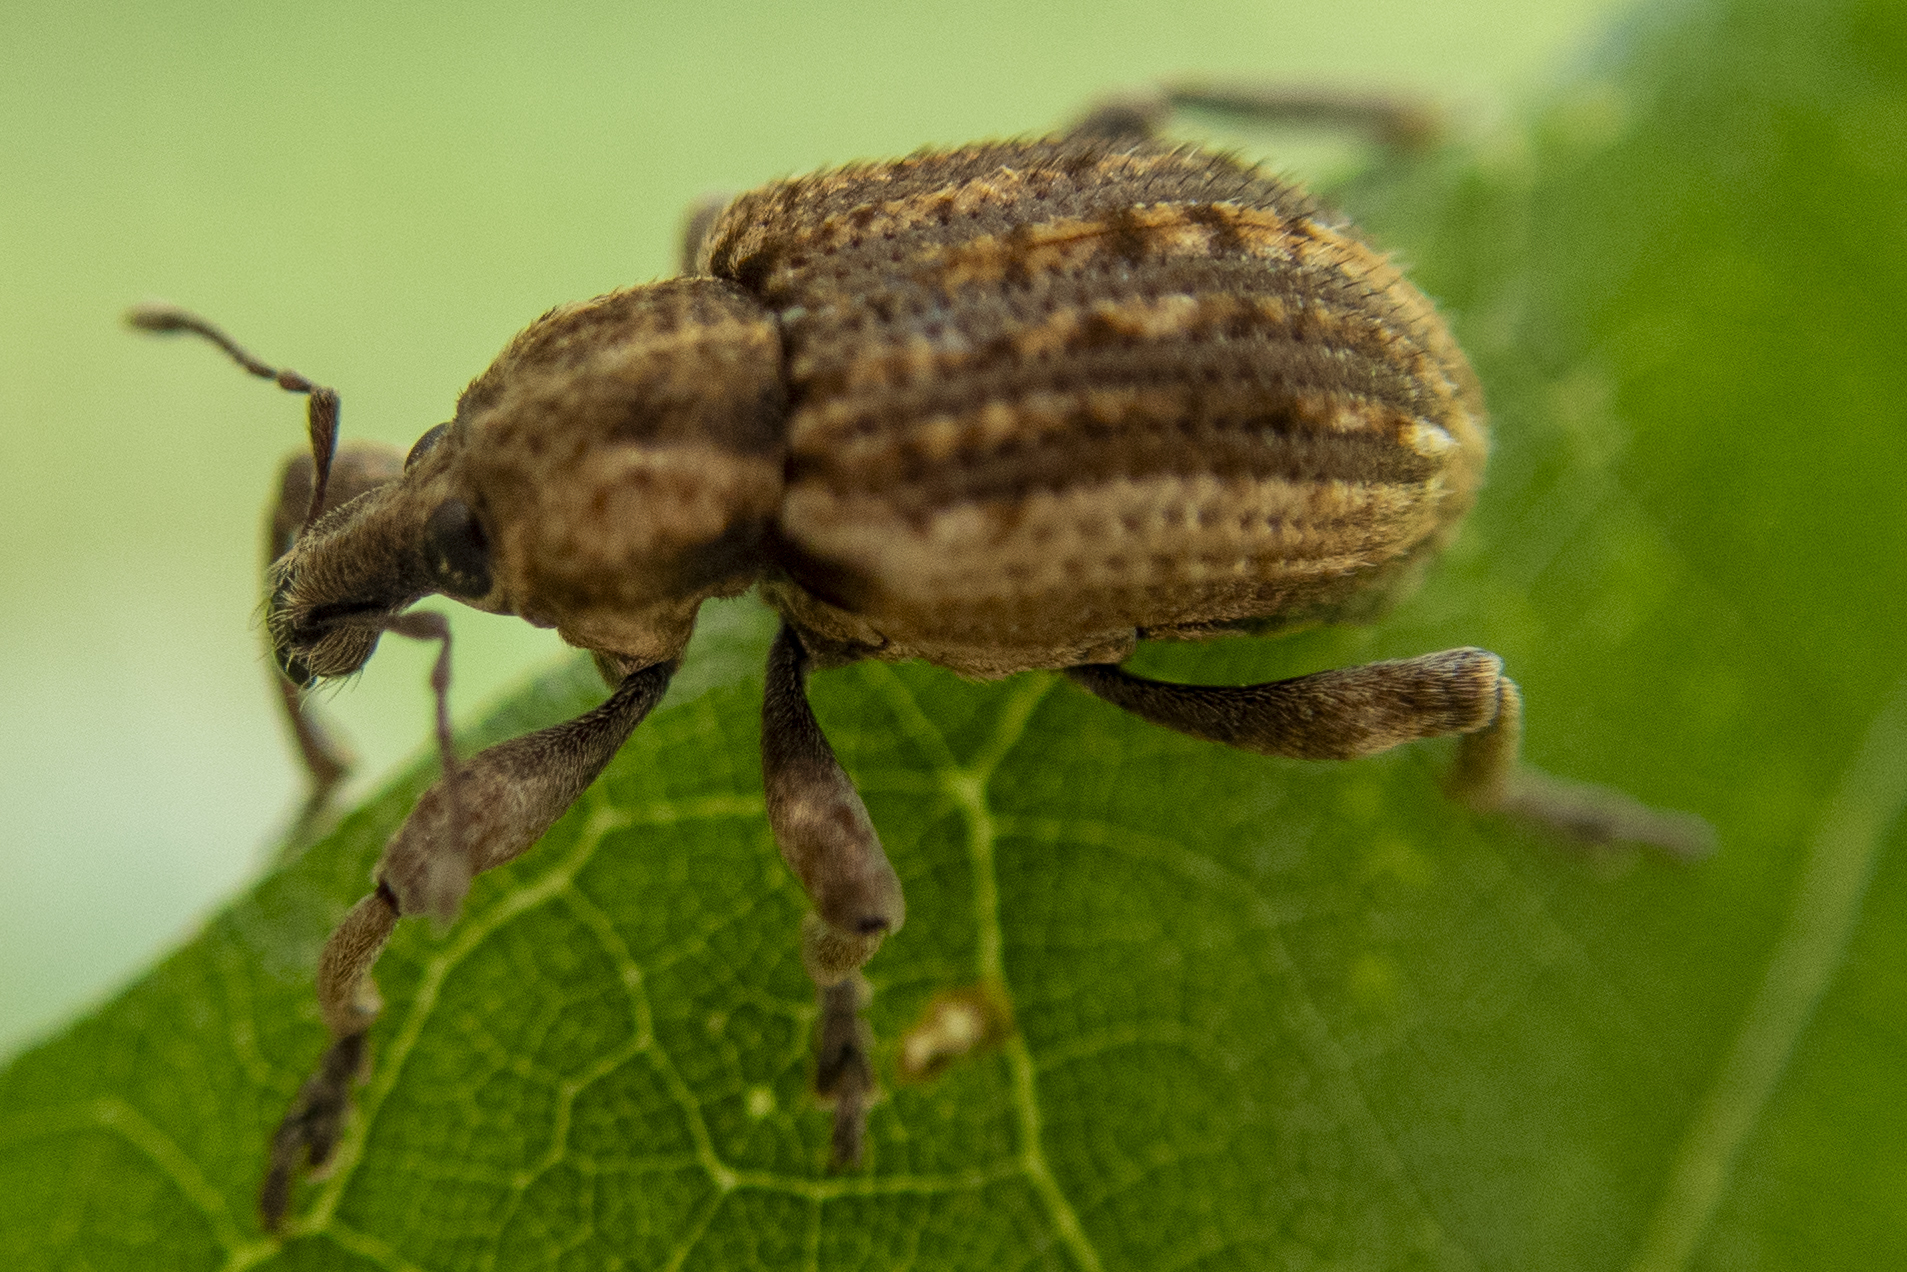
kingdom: Animalia
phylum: Arthropoda
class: Insecta
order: Coleoptera
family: Curculionidae
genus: Brachypera
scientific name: Brachypera zoilus
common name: Clover leaf weevil
